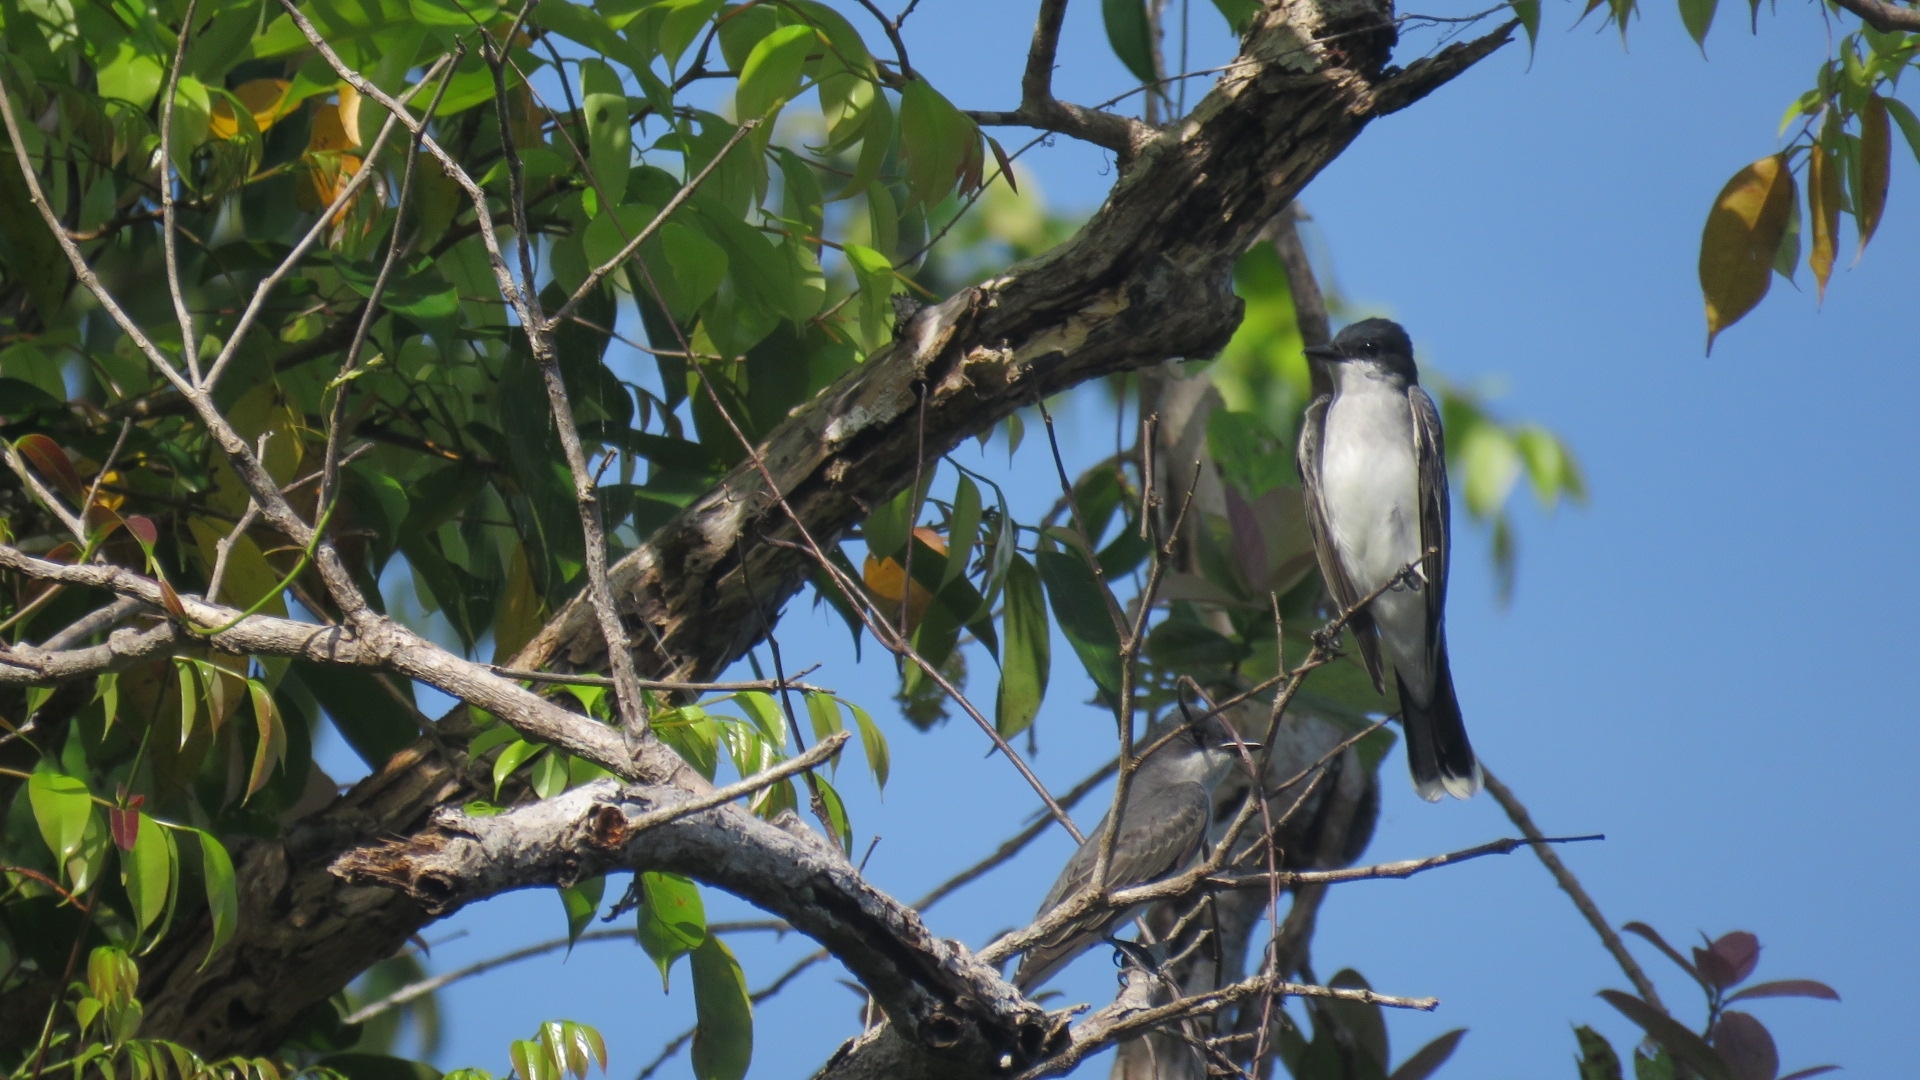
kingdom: Animalia
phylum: Chordata
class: Aves
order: Passeriformes
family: Tyrannidae
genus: Tyrannus
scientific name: Tyrannus tyrannus
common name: Eastern kingbird
